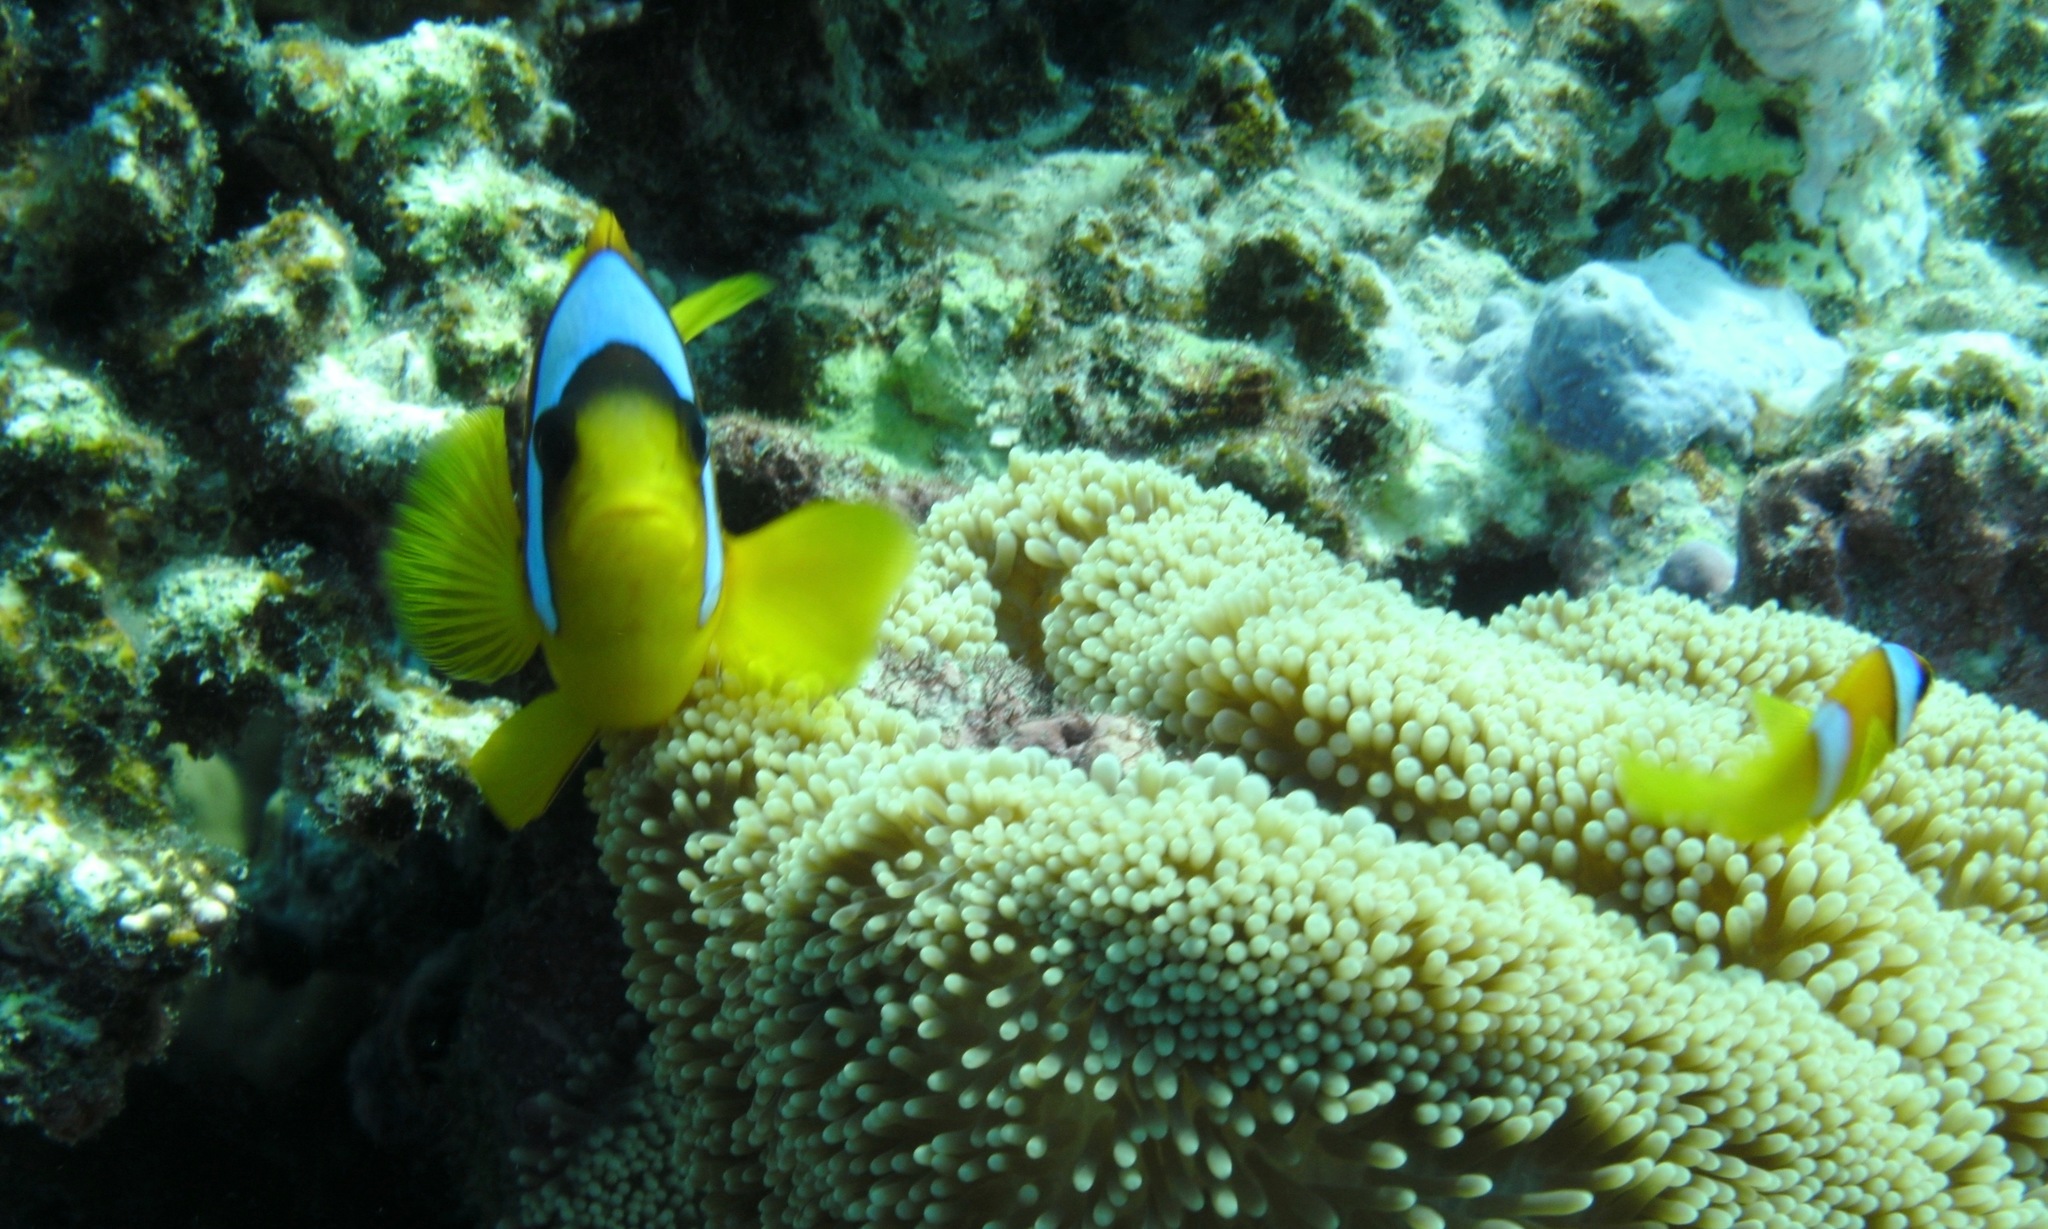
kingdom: Animalia
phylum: Chordata
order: Perciformes
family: Pomacentridae
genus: Amphiprion
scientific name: Amphiprion bicinctus
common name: Two-banded anemonefish
